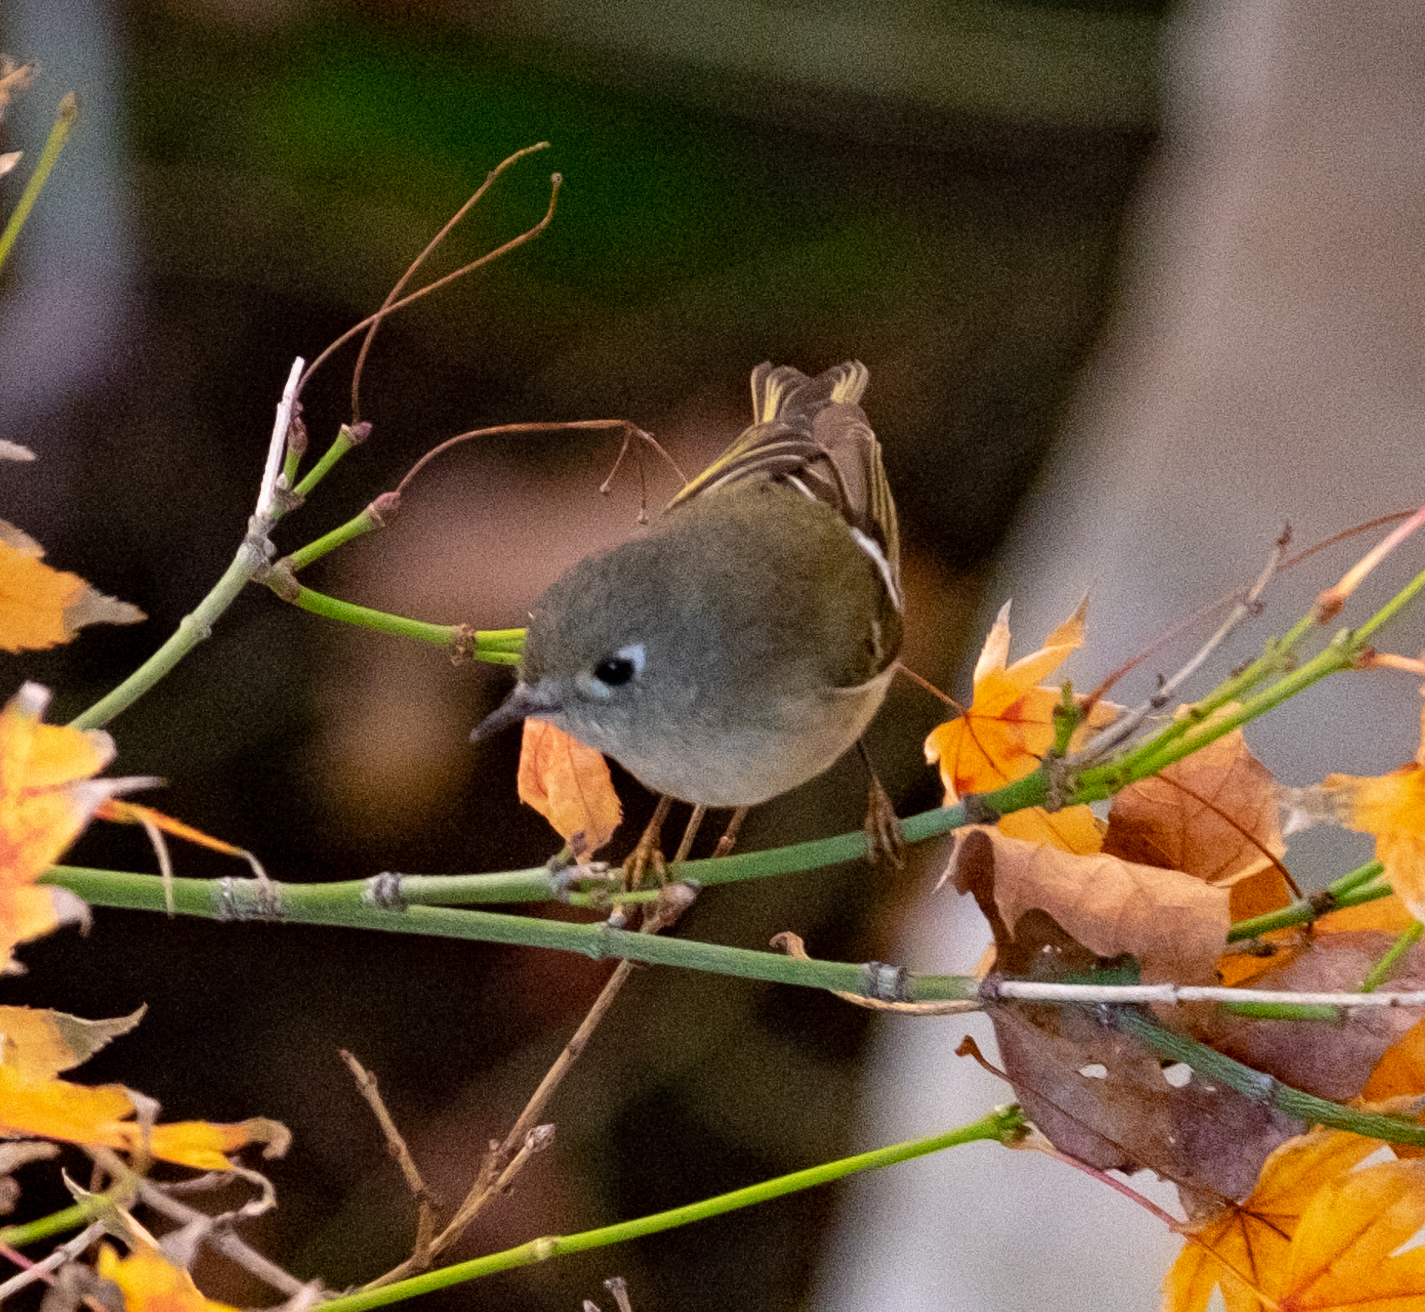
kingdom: Animalia
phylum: Chordata
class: Aves
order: Passeriformes
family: Regulidae
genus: Regulus
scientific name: Regulus calendula
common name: Ruby-crowned kinglet
